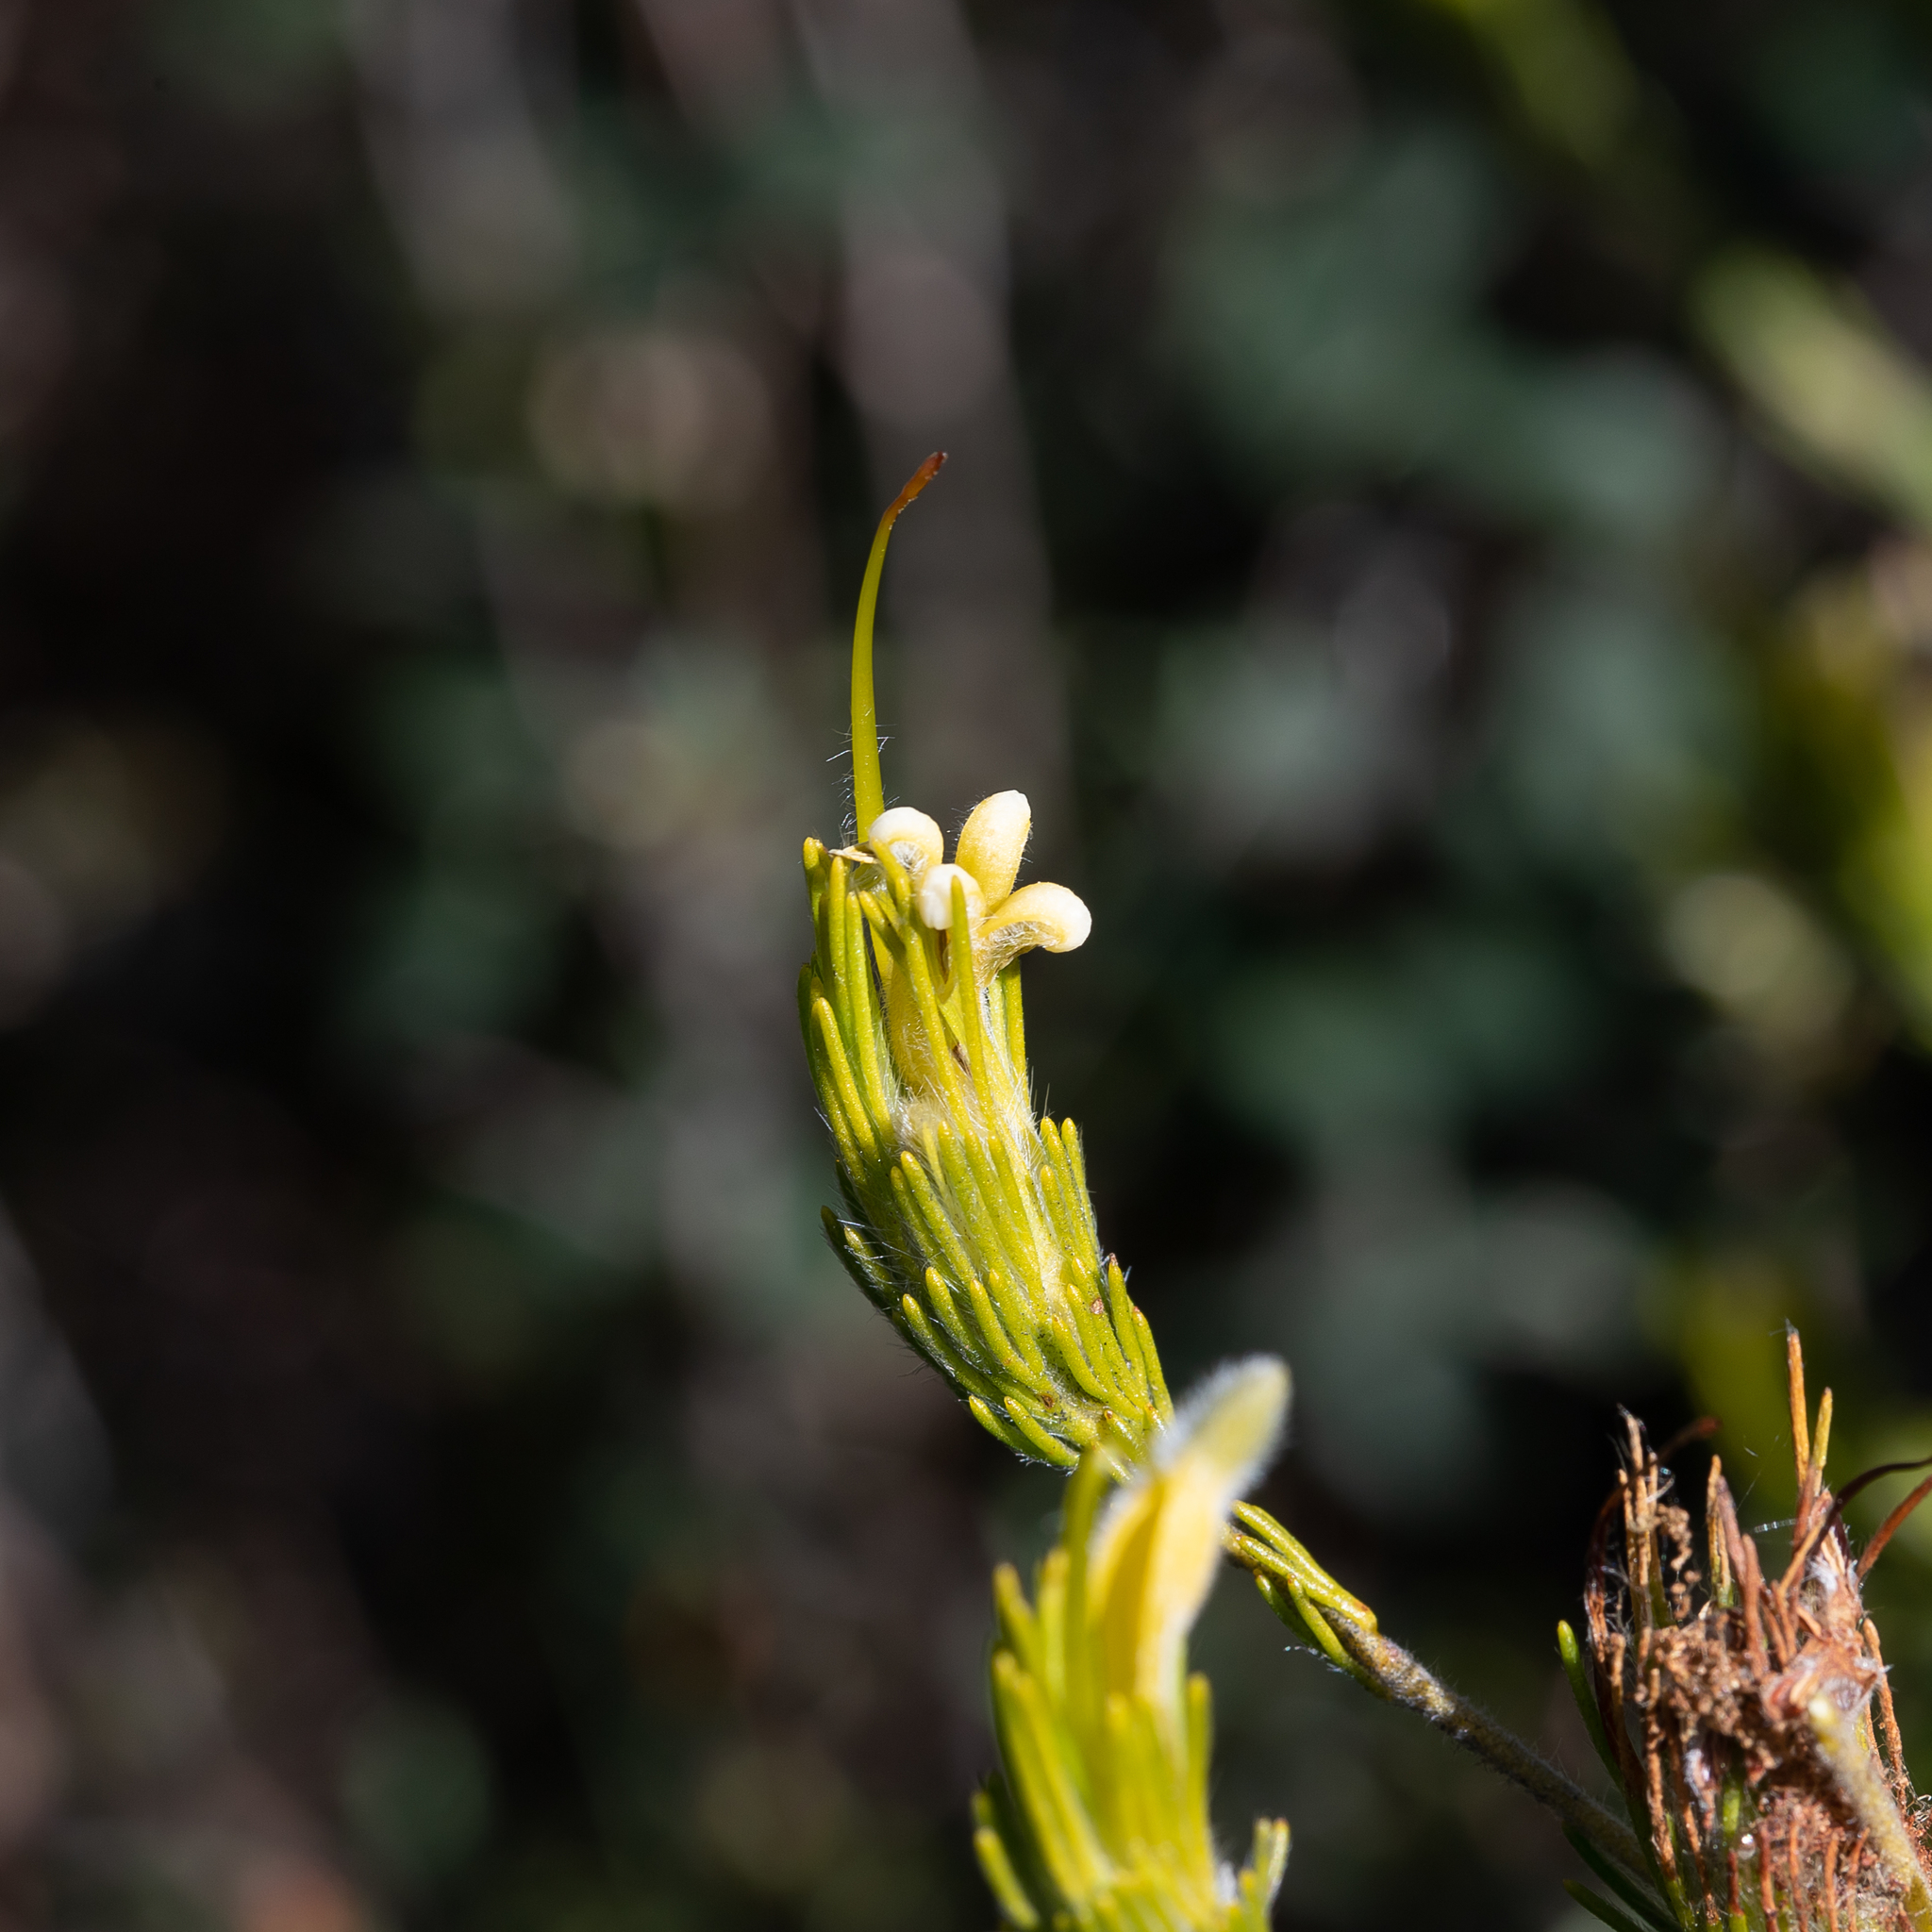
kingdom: Plantae
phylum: Tracheophyta
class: Magnoliopsida
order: Proteales
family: Proteaceae
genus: Adenanthos
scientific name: Adenanthos terminalis
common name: Yellow gland-flower
